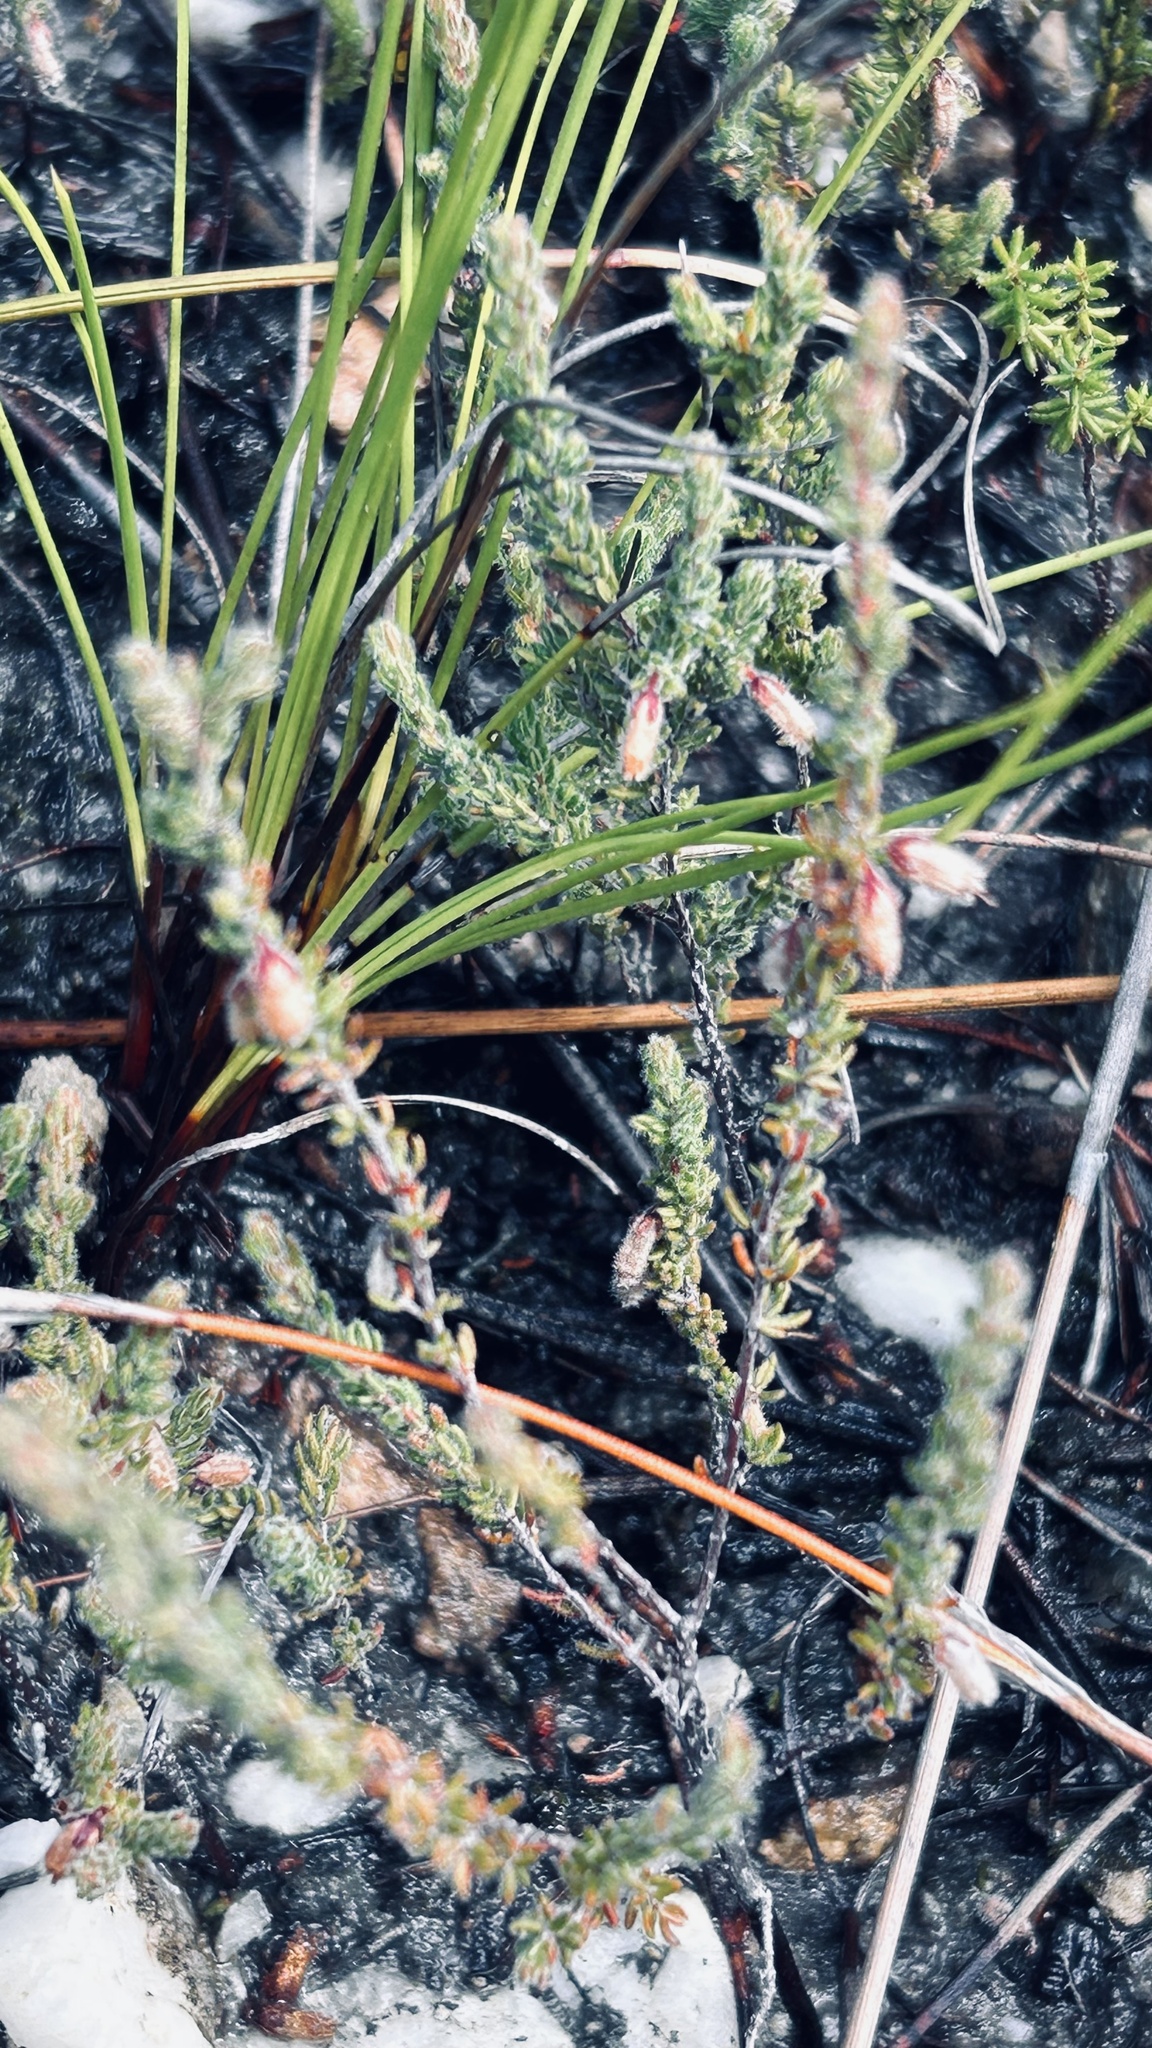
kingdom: Plantae
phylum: Tracheophyta
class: Magnoliopsida
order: Ericales
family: Ericaceae
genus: Erica
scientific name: Erica garciae
